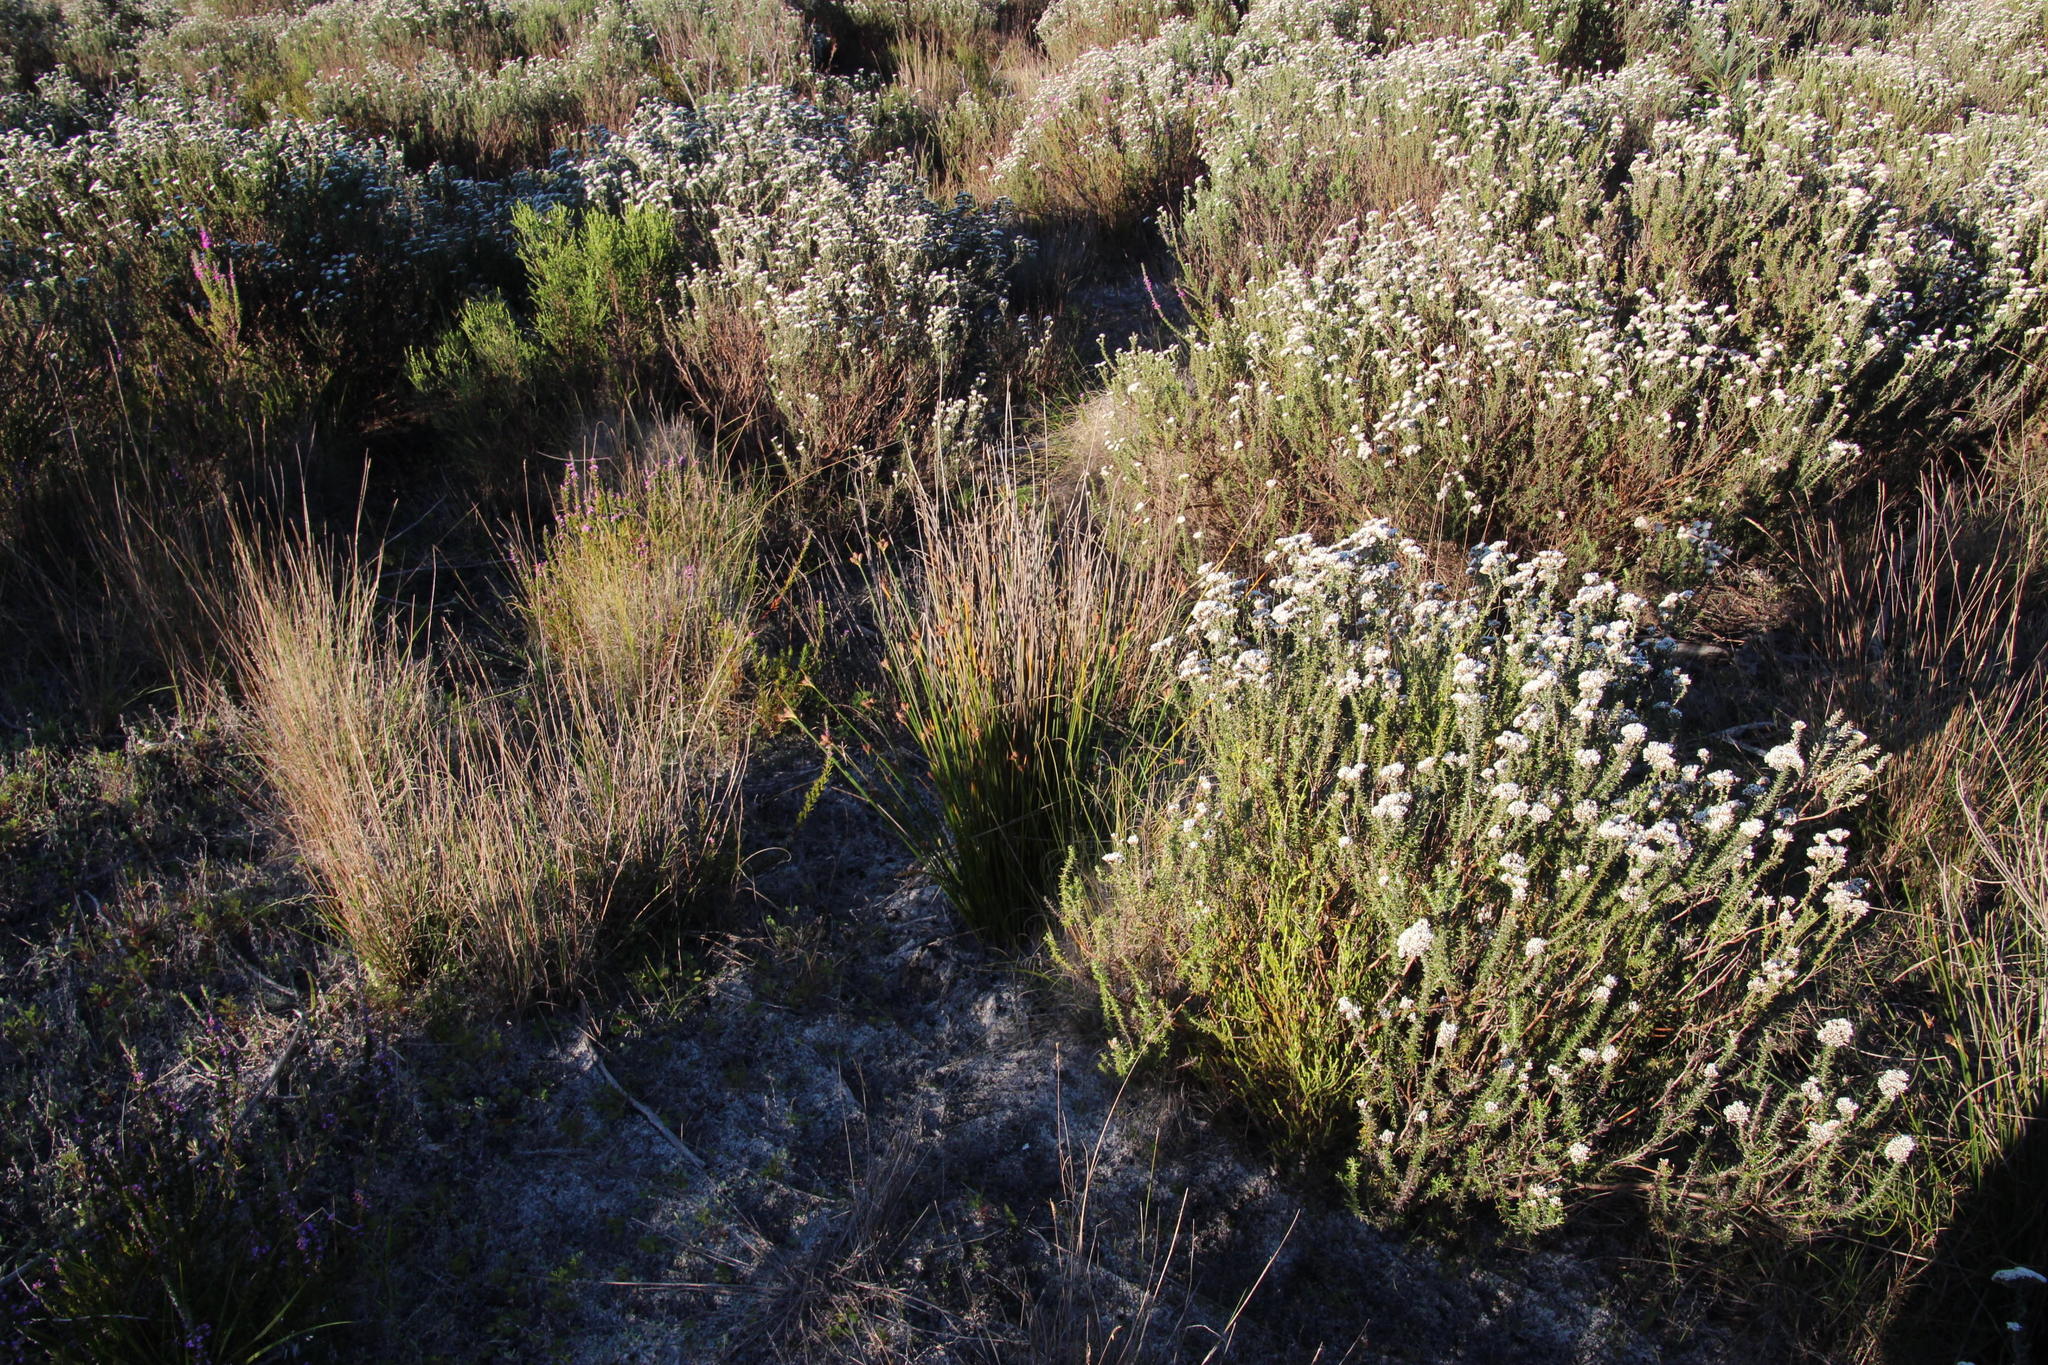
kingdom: Plantae
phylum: Tracheophyta
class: Liliopsida
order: Poales
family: Cyperaceae
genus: Hellmuthia
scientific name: Hellmuthia membranacea
